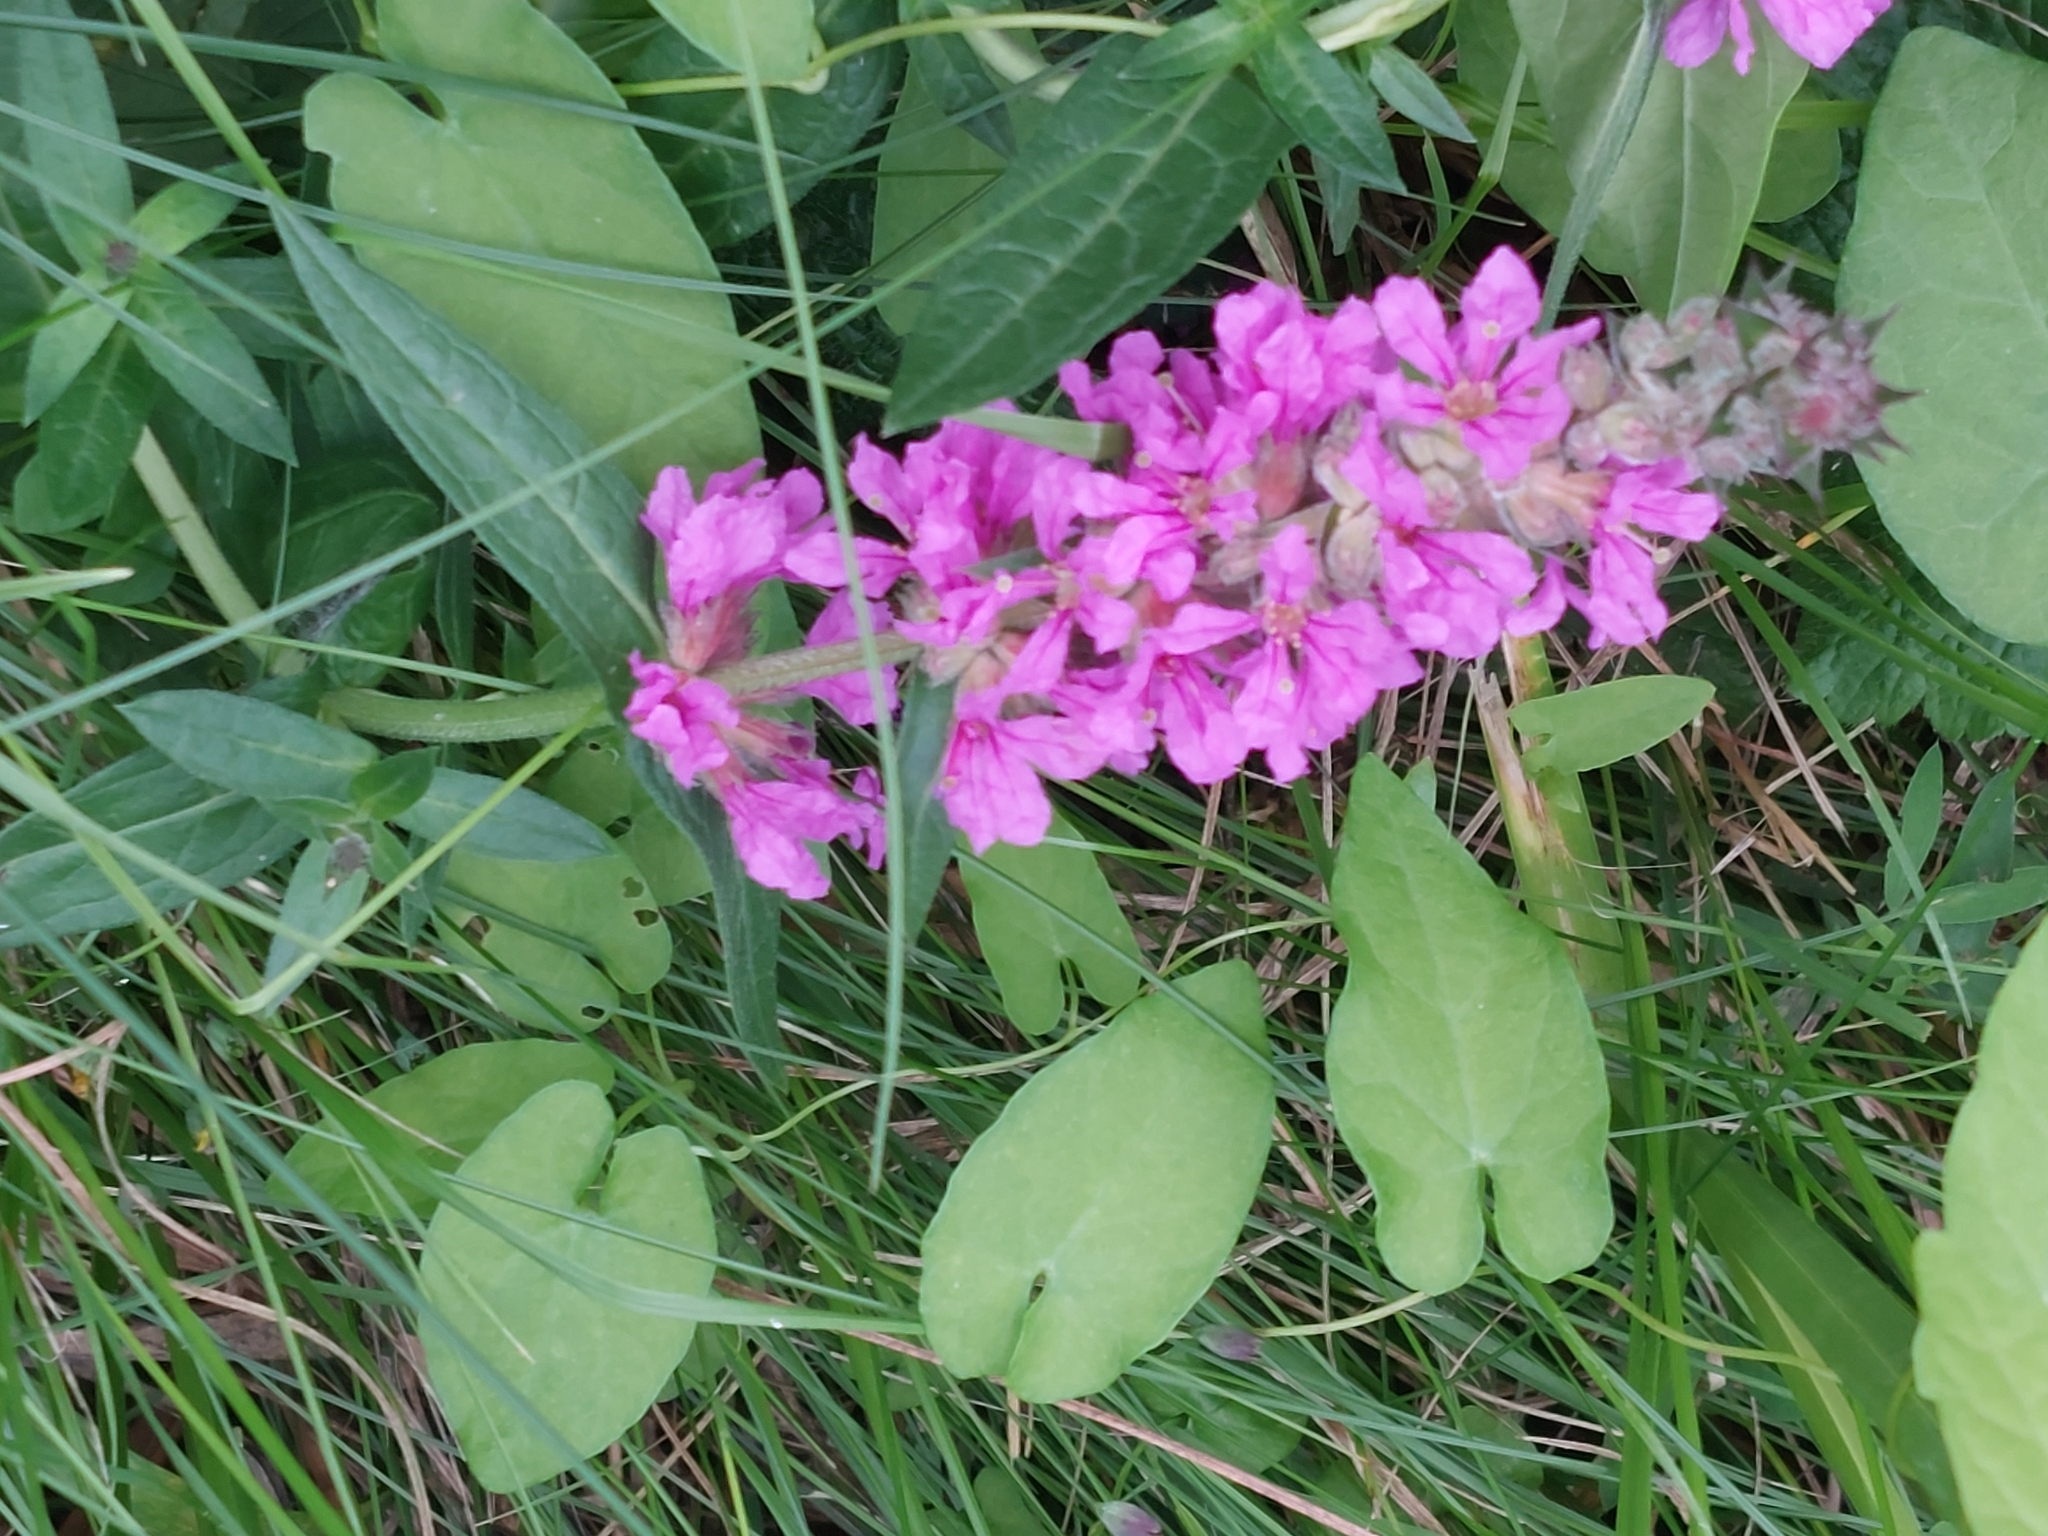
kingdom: Plantae
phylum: Tracheophyta
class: Magnoliopsida
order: Myrtales
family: Lythraceae
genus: Lythrum
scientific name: Lythrum salicaria
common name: Purple loosestrife
